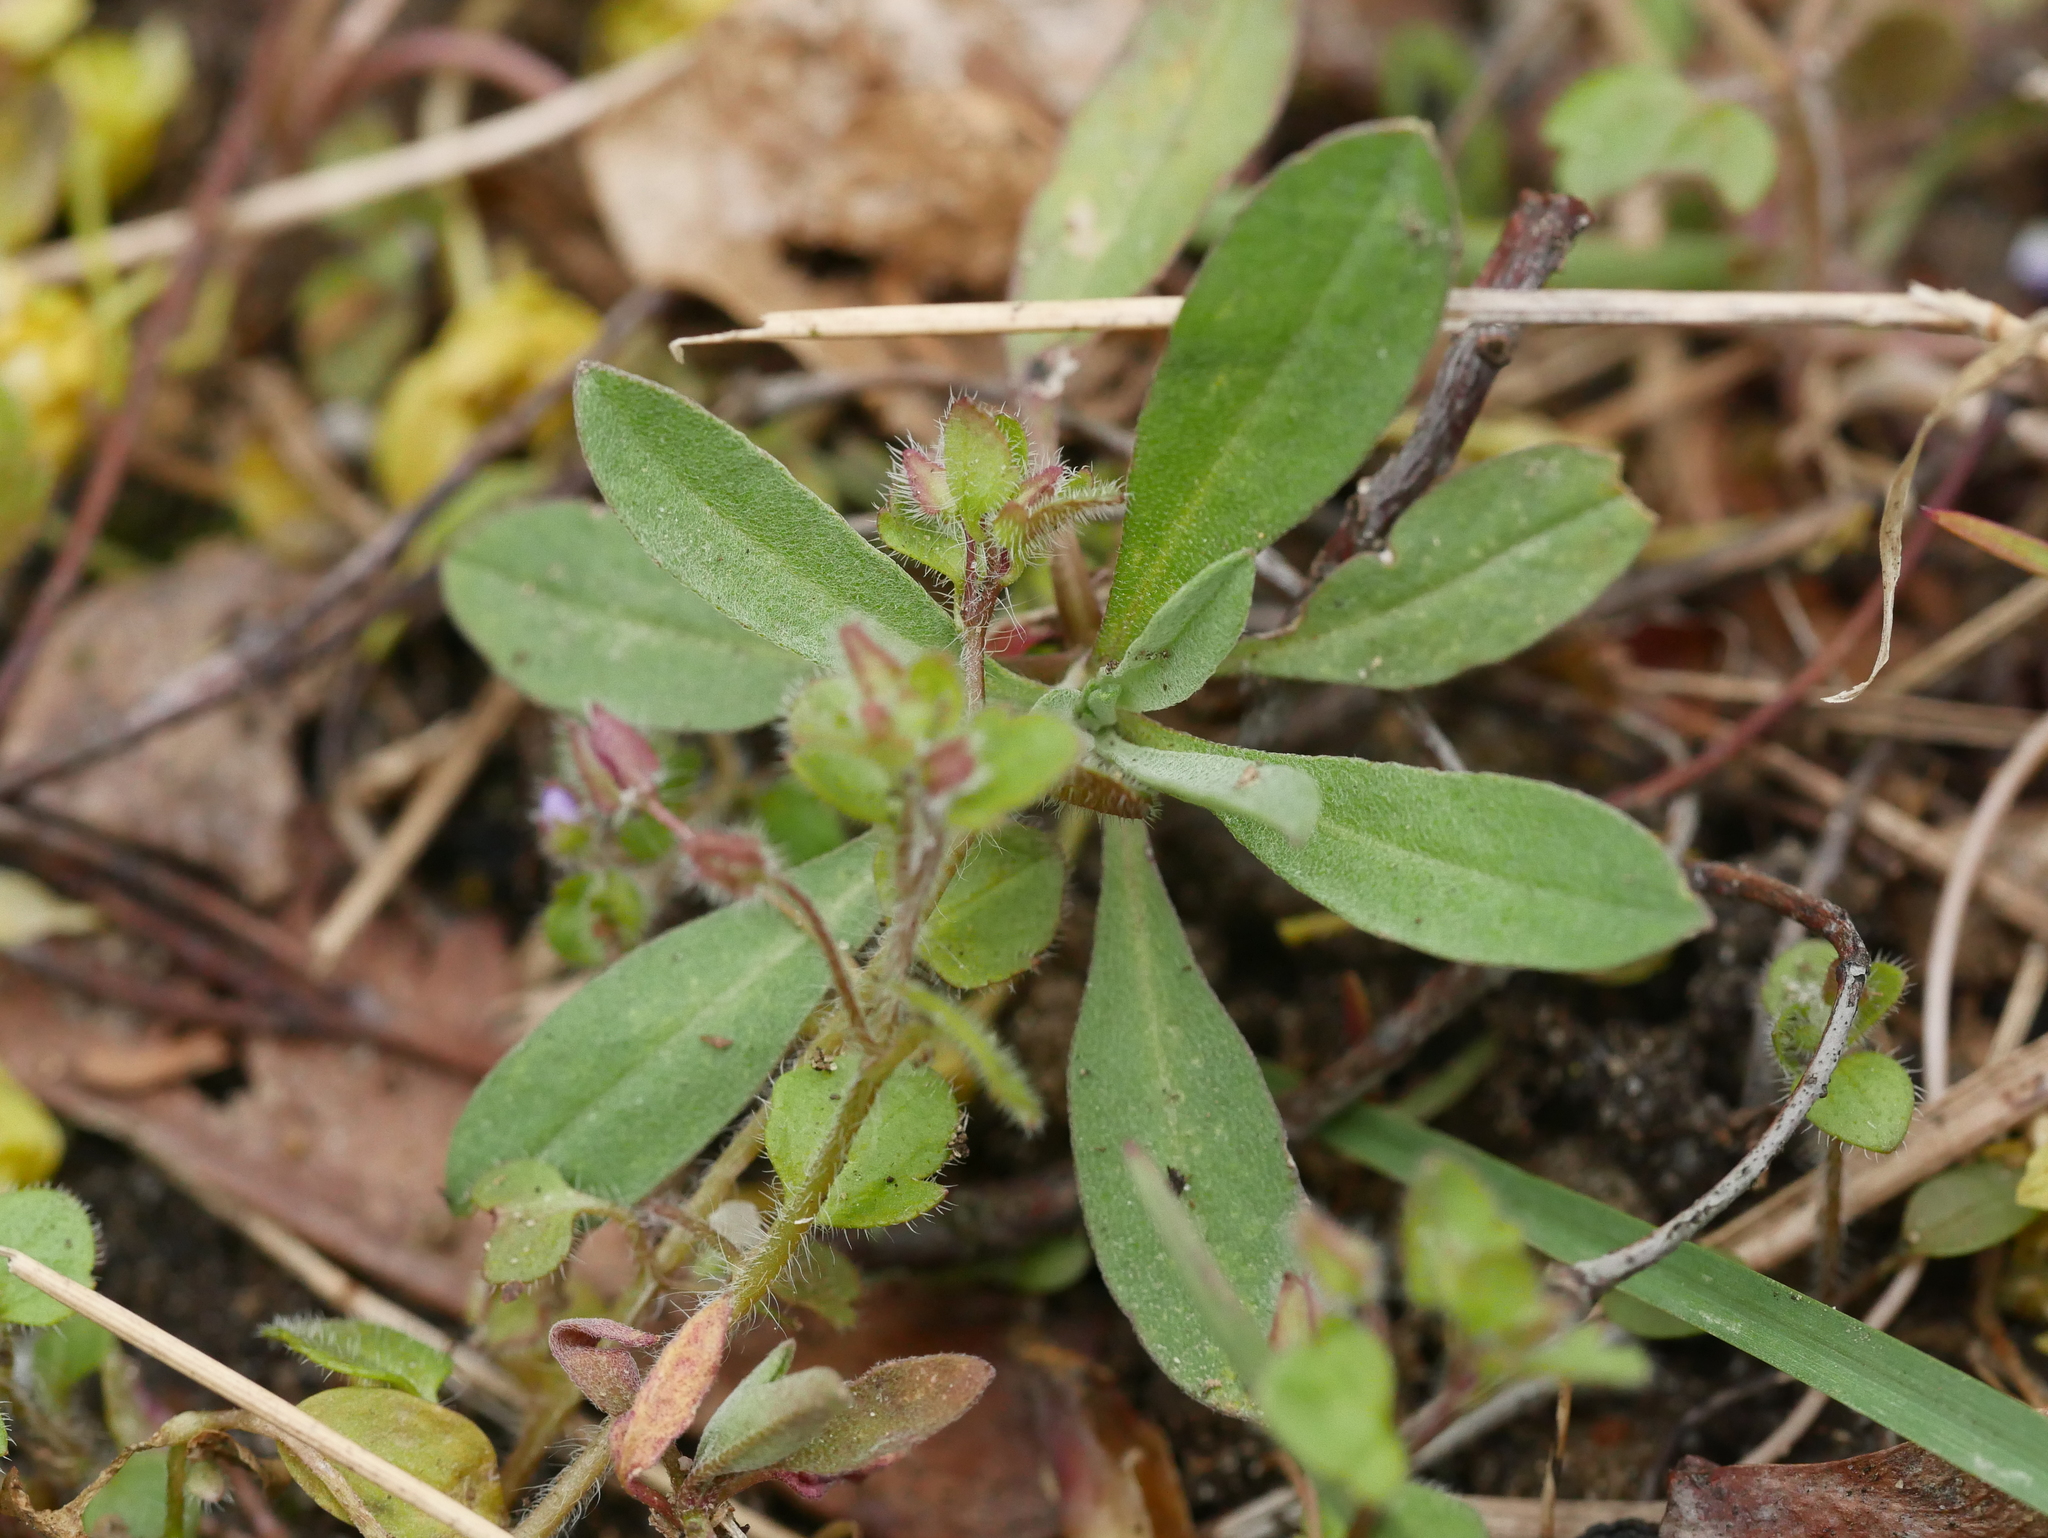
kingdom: Plantae
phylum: Tracheophyta
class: Magnoliopsida
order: Brassicales
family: Brassicaceae
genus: Berteroa
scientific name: Berteroa incana
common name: Hoary alison
